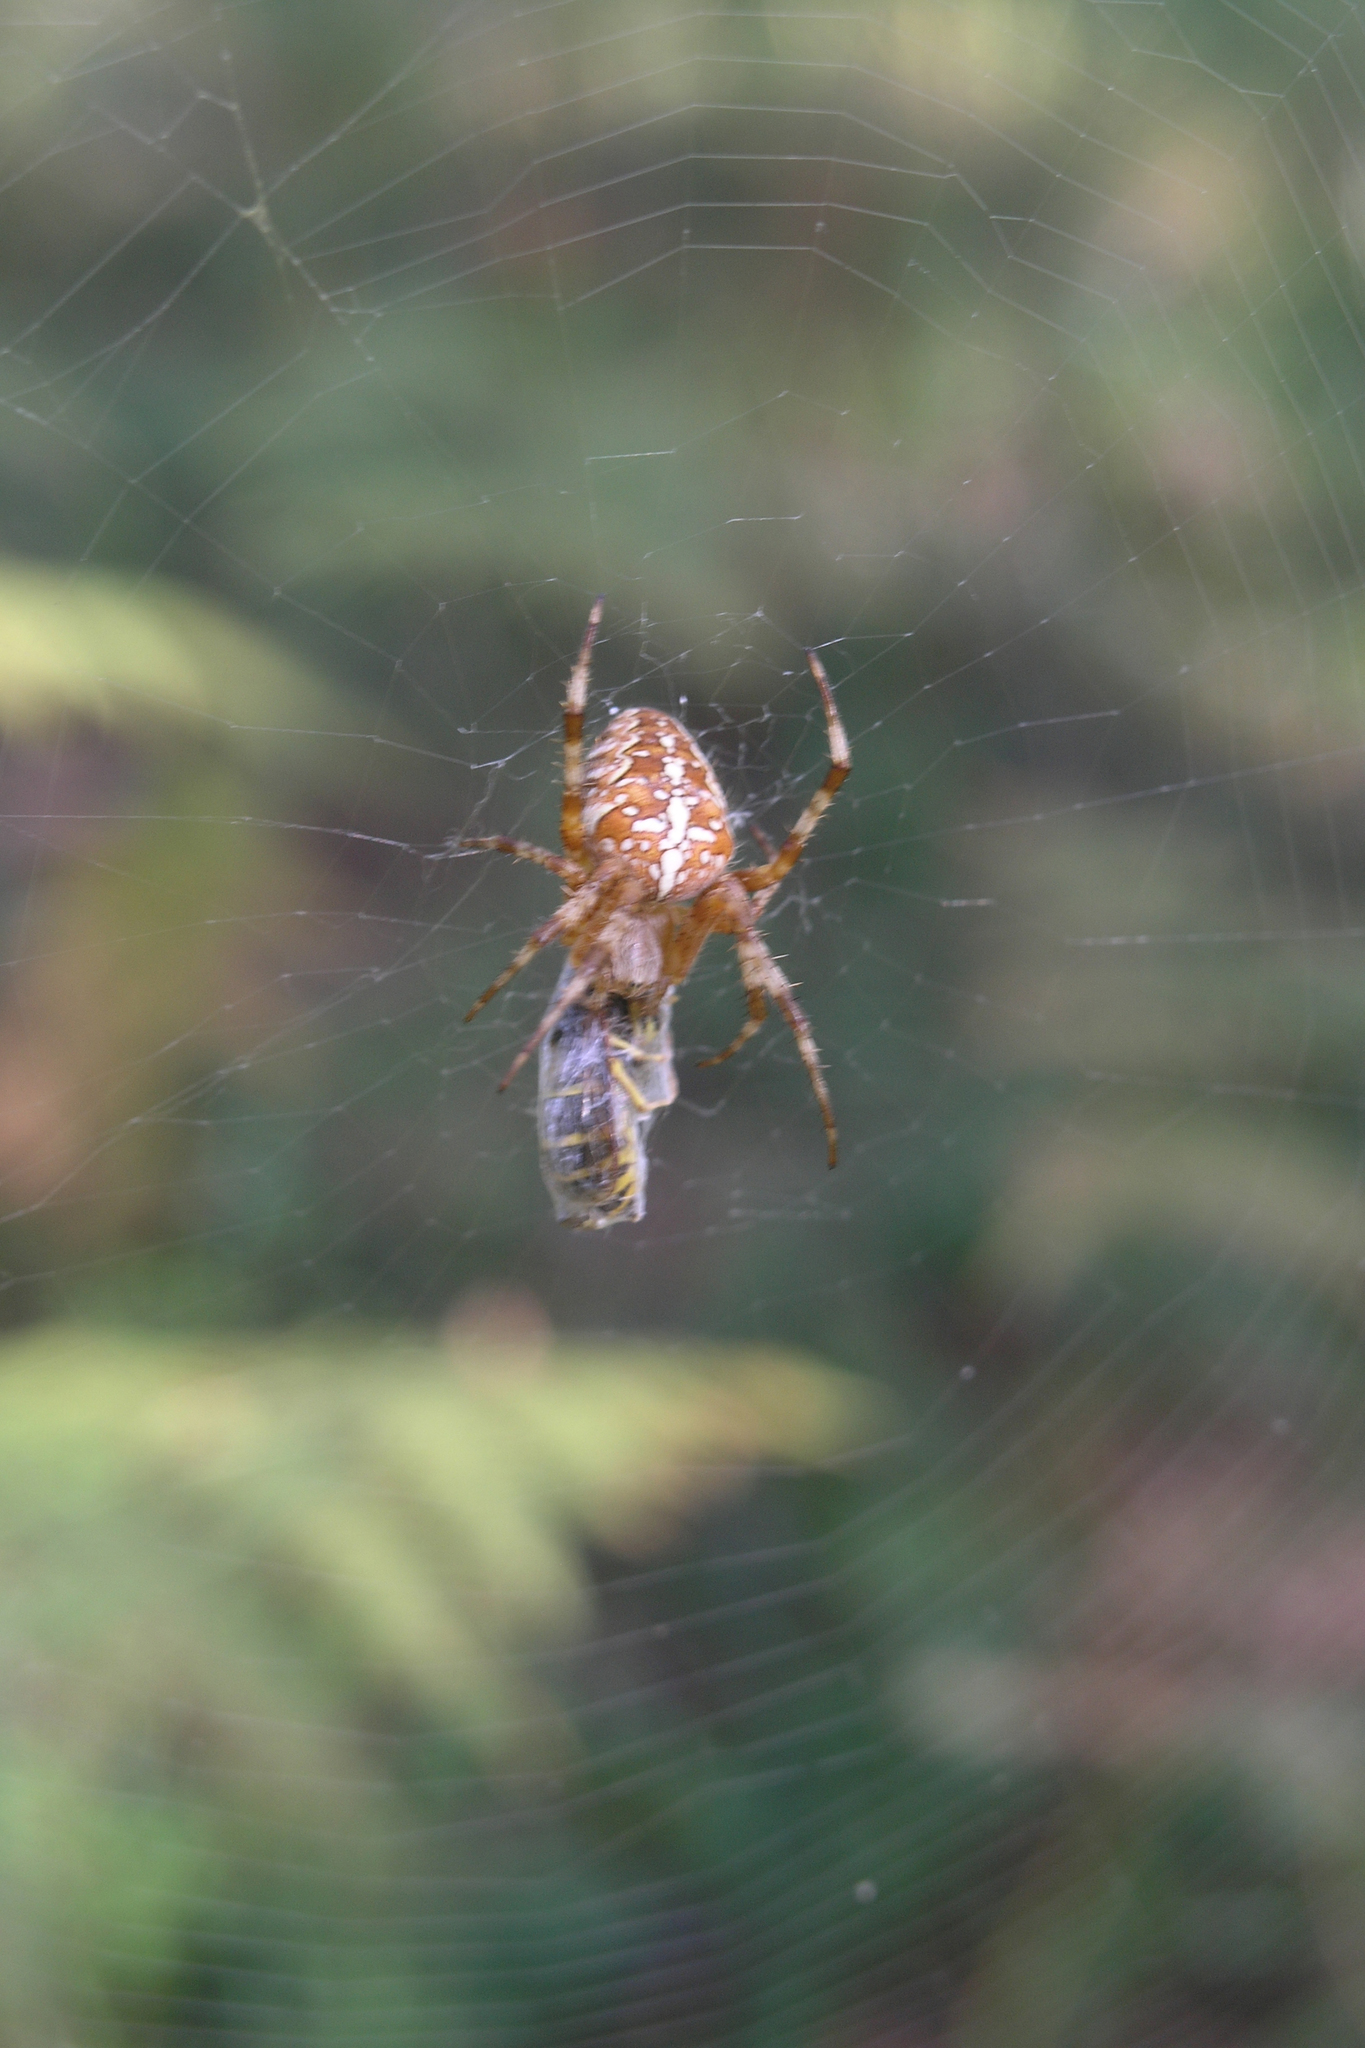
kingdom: Animalia
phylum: Arthropoda
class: Arachnida
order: Araneae
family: Araneidae
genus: Araneus
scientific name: Araneus diadematus
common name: Cross orbweaver
